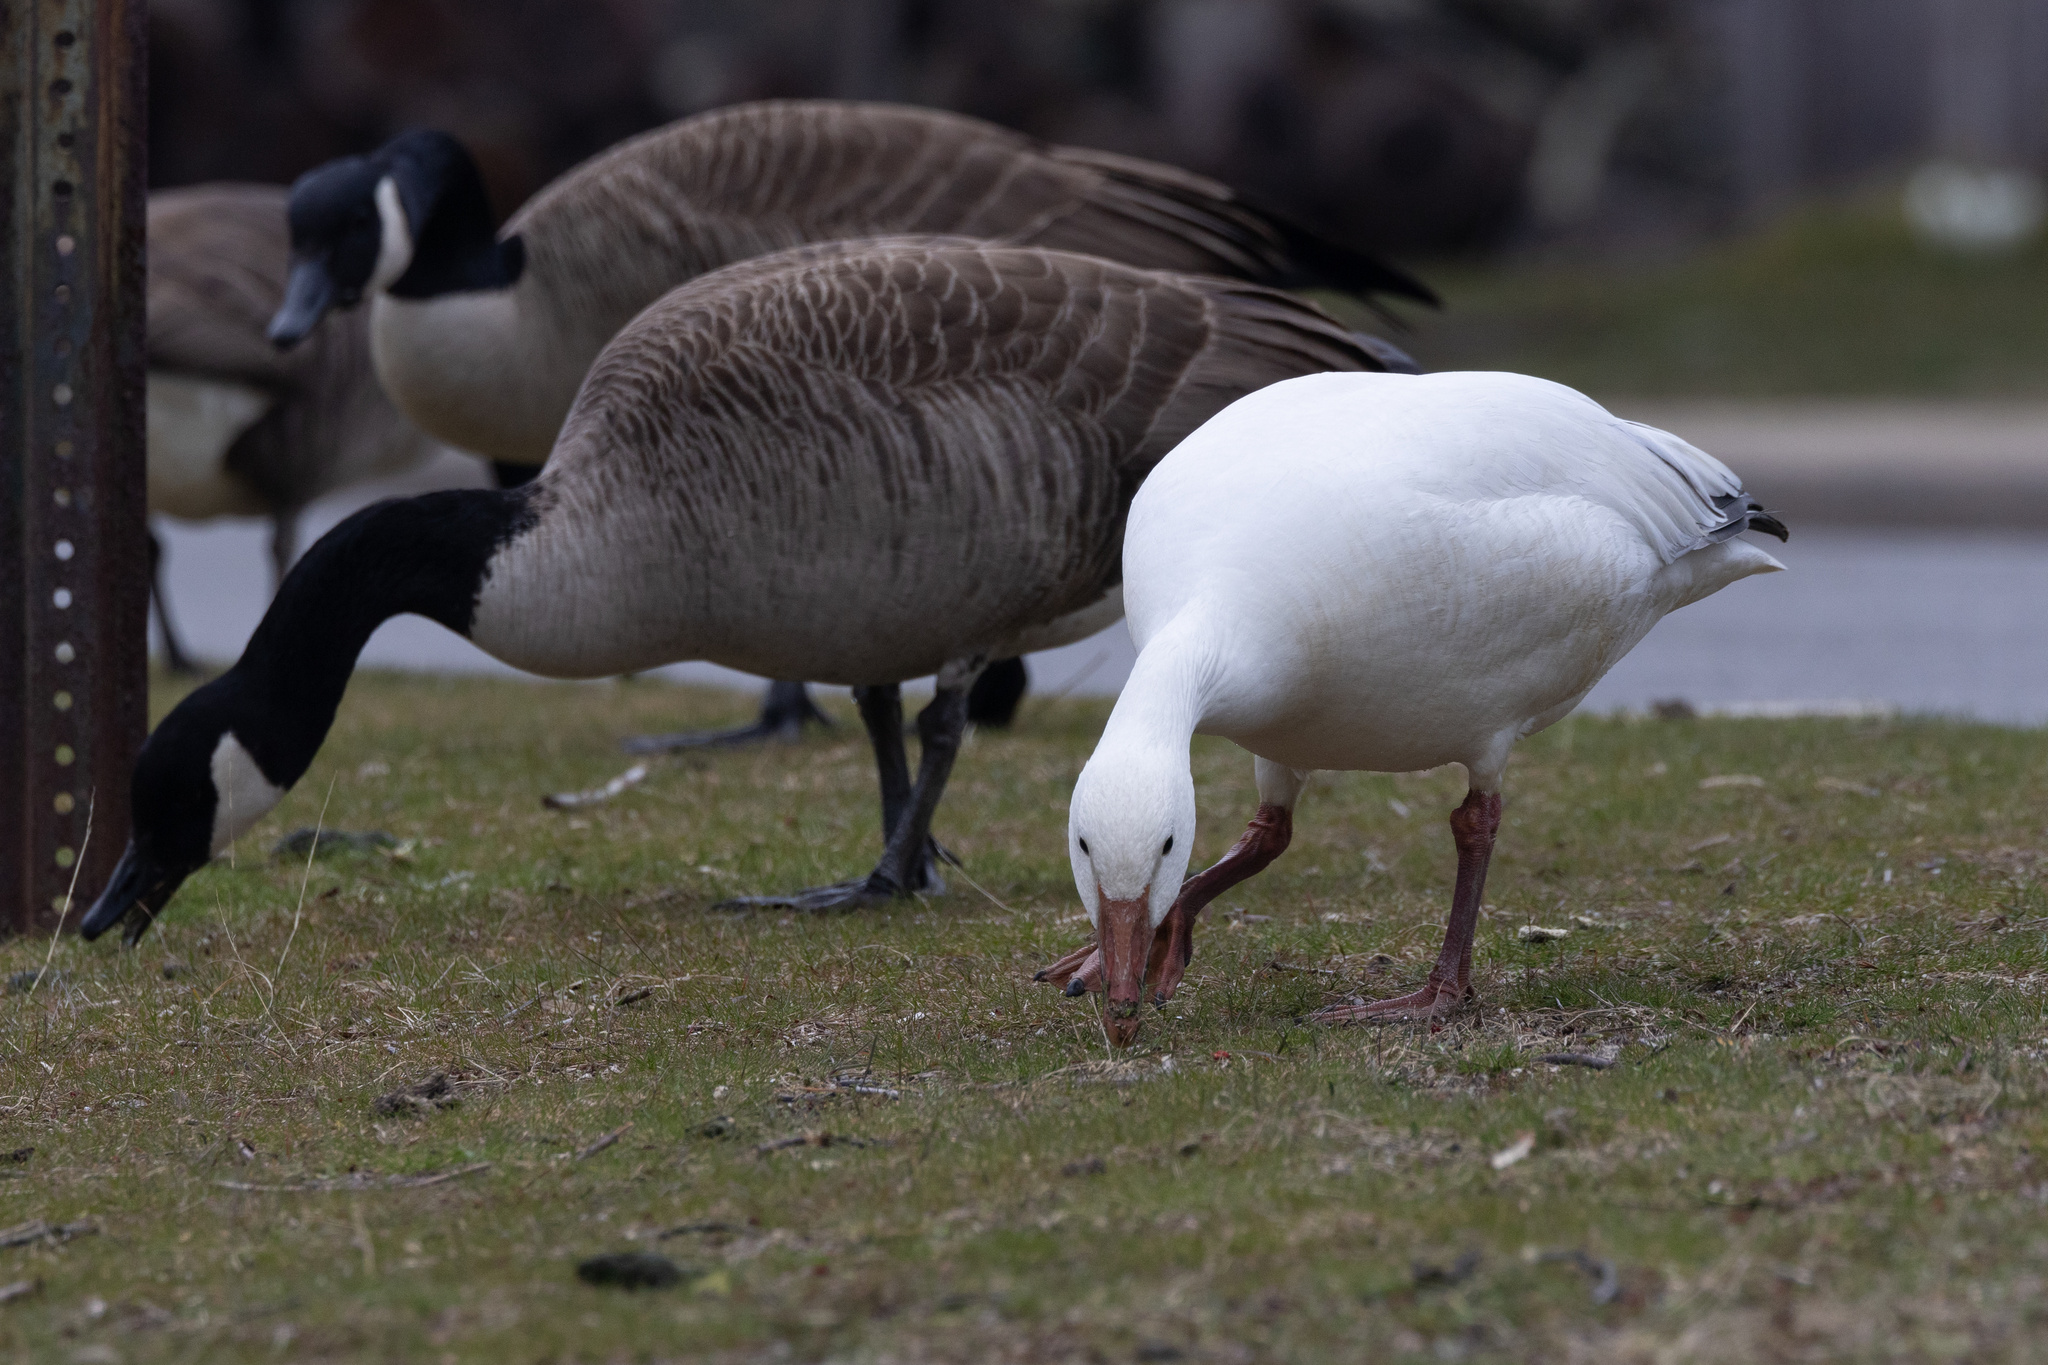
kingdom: Animalia
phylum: Chordata
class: Aves
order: Anseriformes
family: Anatidae
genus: Anser
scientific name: Anser caerulescens
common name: Snow goose
